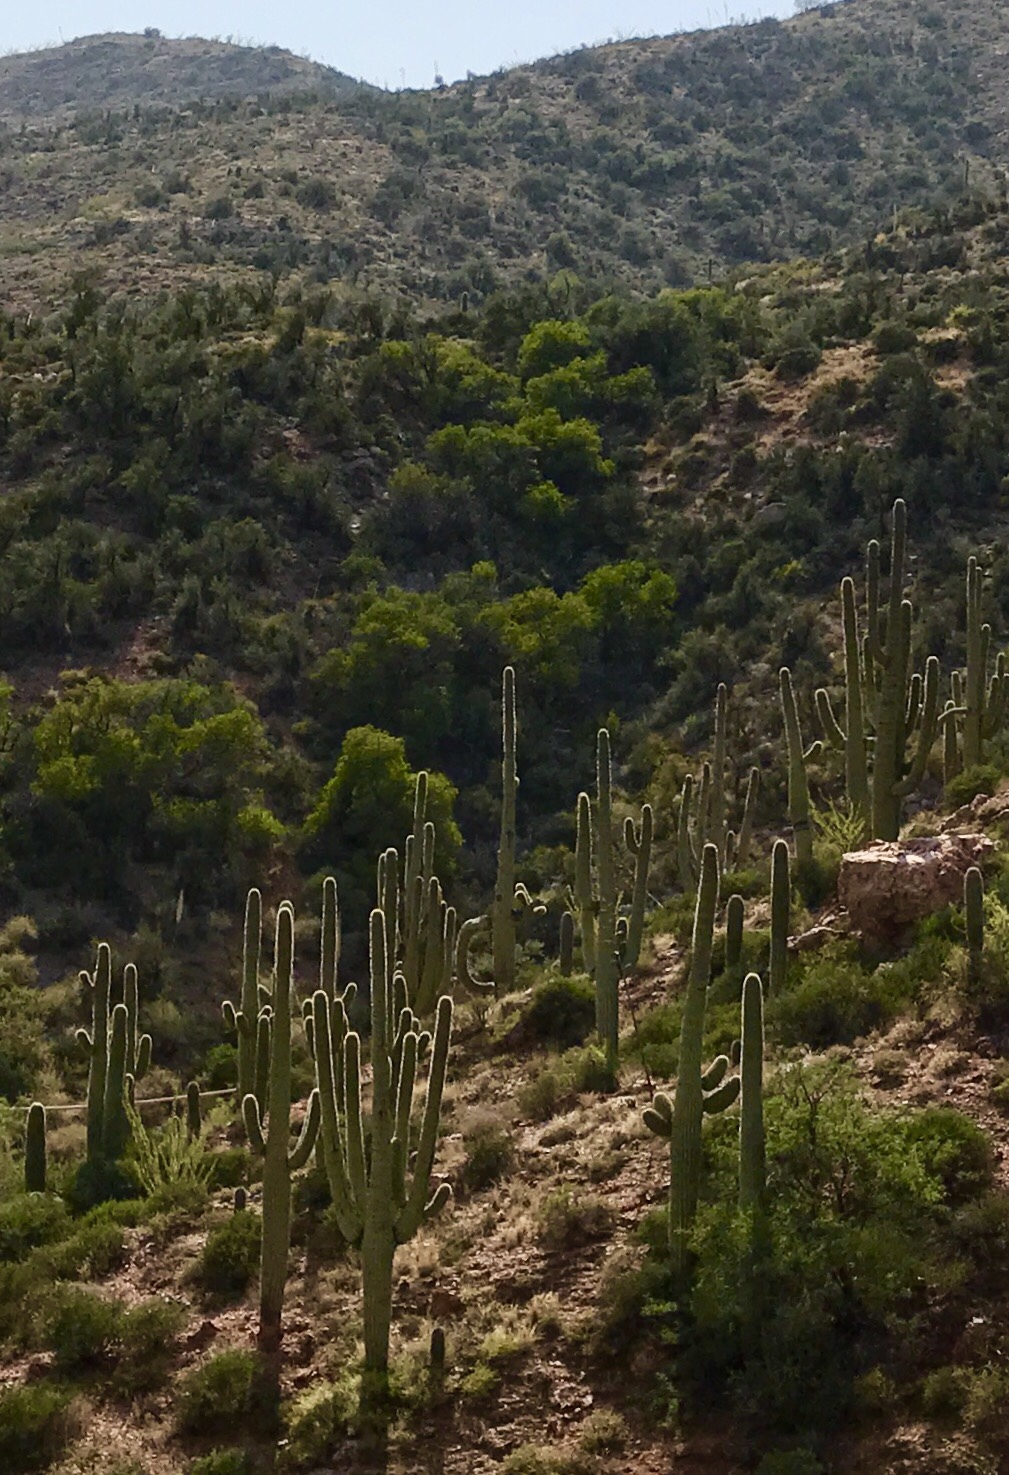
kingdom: Plantae
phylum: Tracheophyta
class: Magnoliopsida
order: Caryophyllales
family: Cactaceae
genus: Carnegiea
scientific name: Carnegiea gigantea
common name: Saguaro
